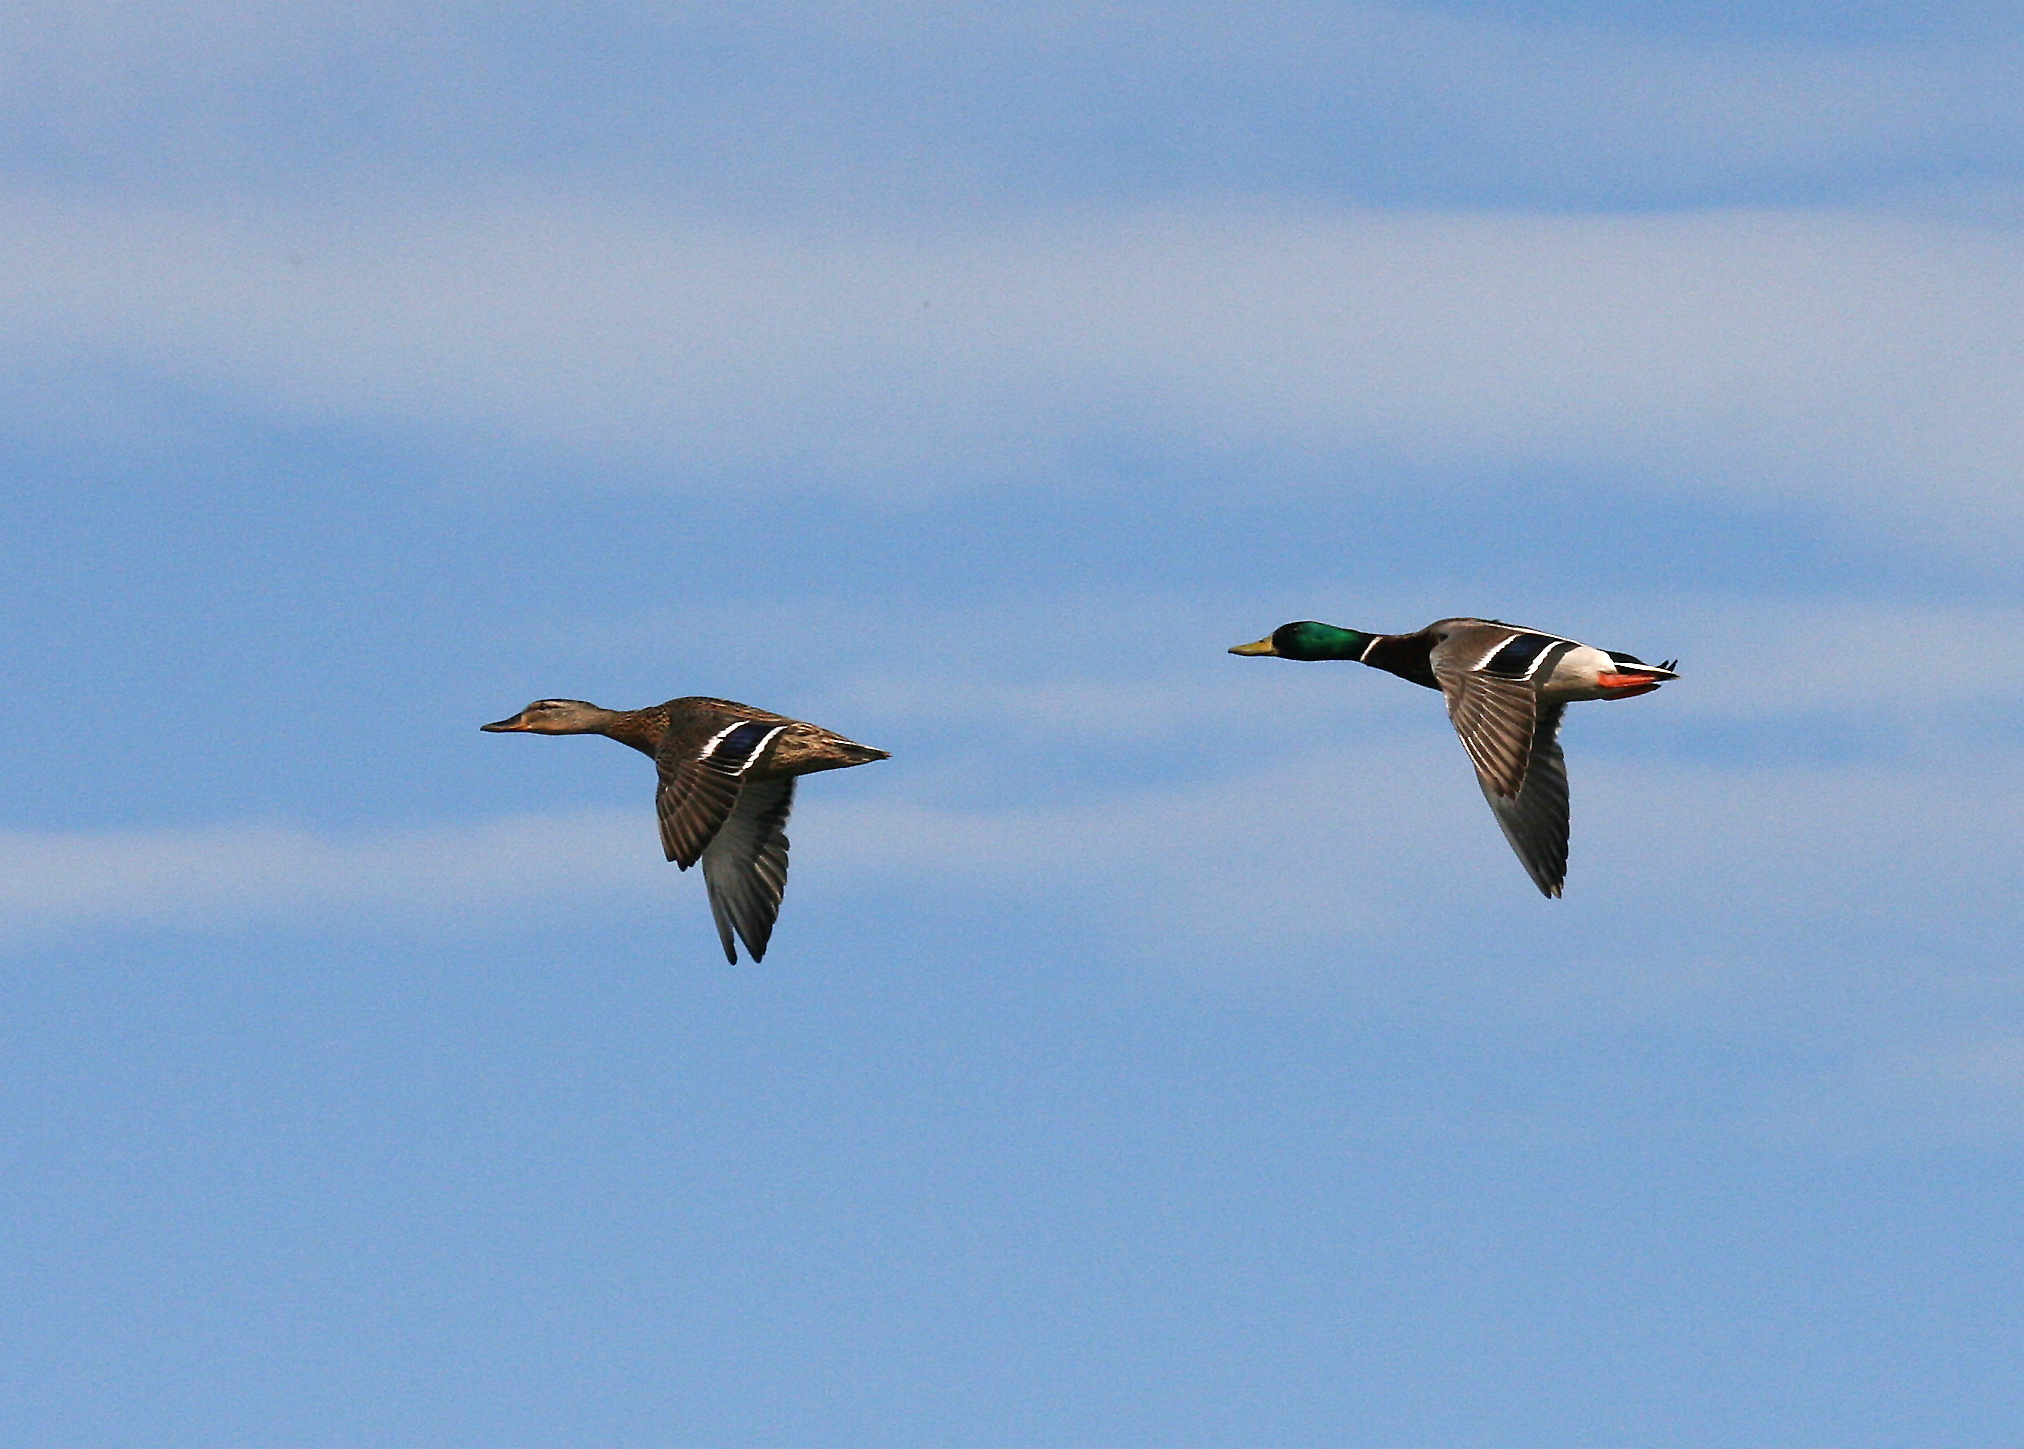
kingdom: Animalia
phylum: Chordata
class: Aves
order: Anseriformes
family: Anatidae
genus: Anas
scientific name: Anas platyrhynchos
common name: Mallard
